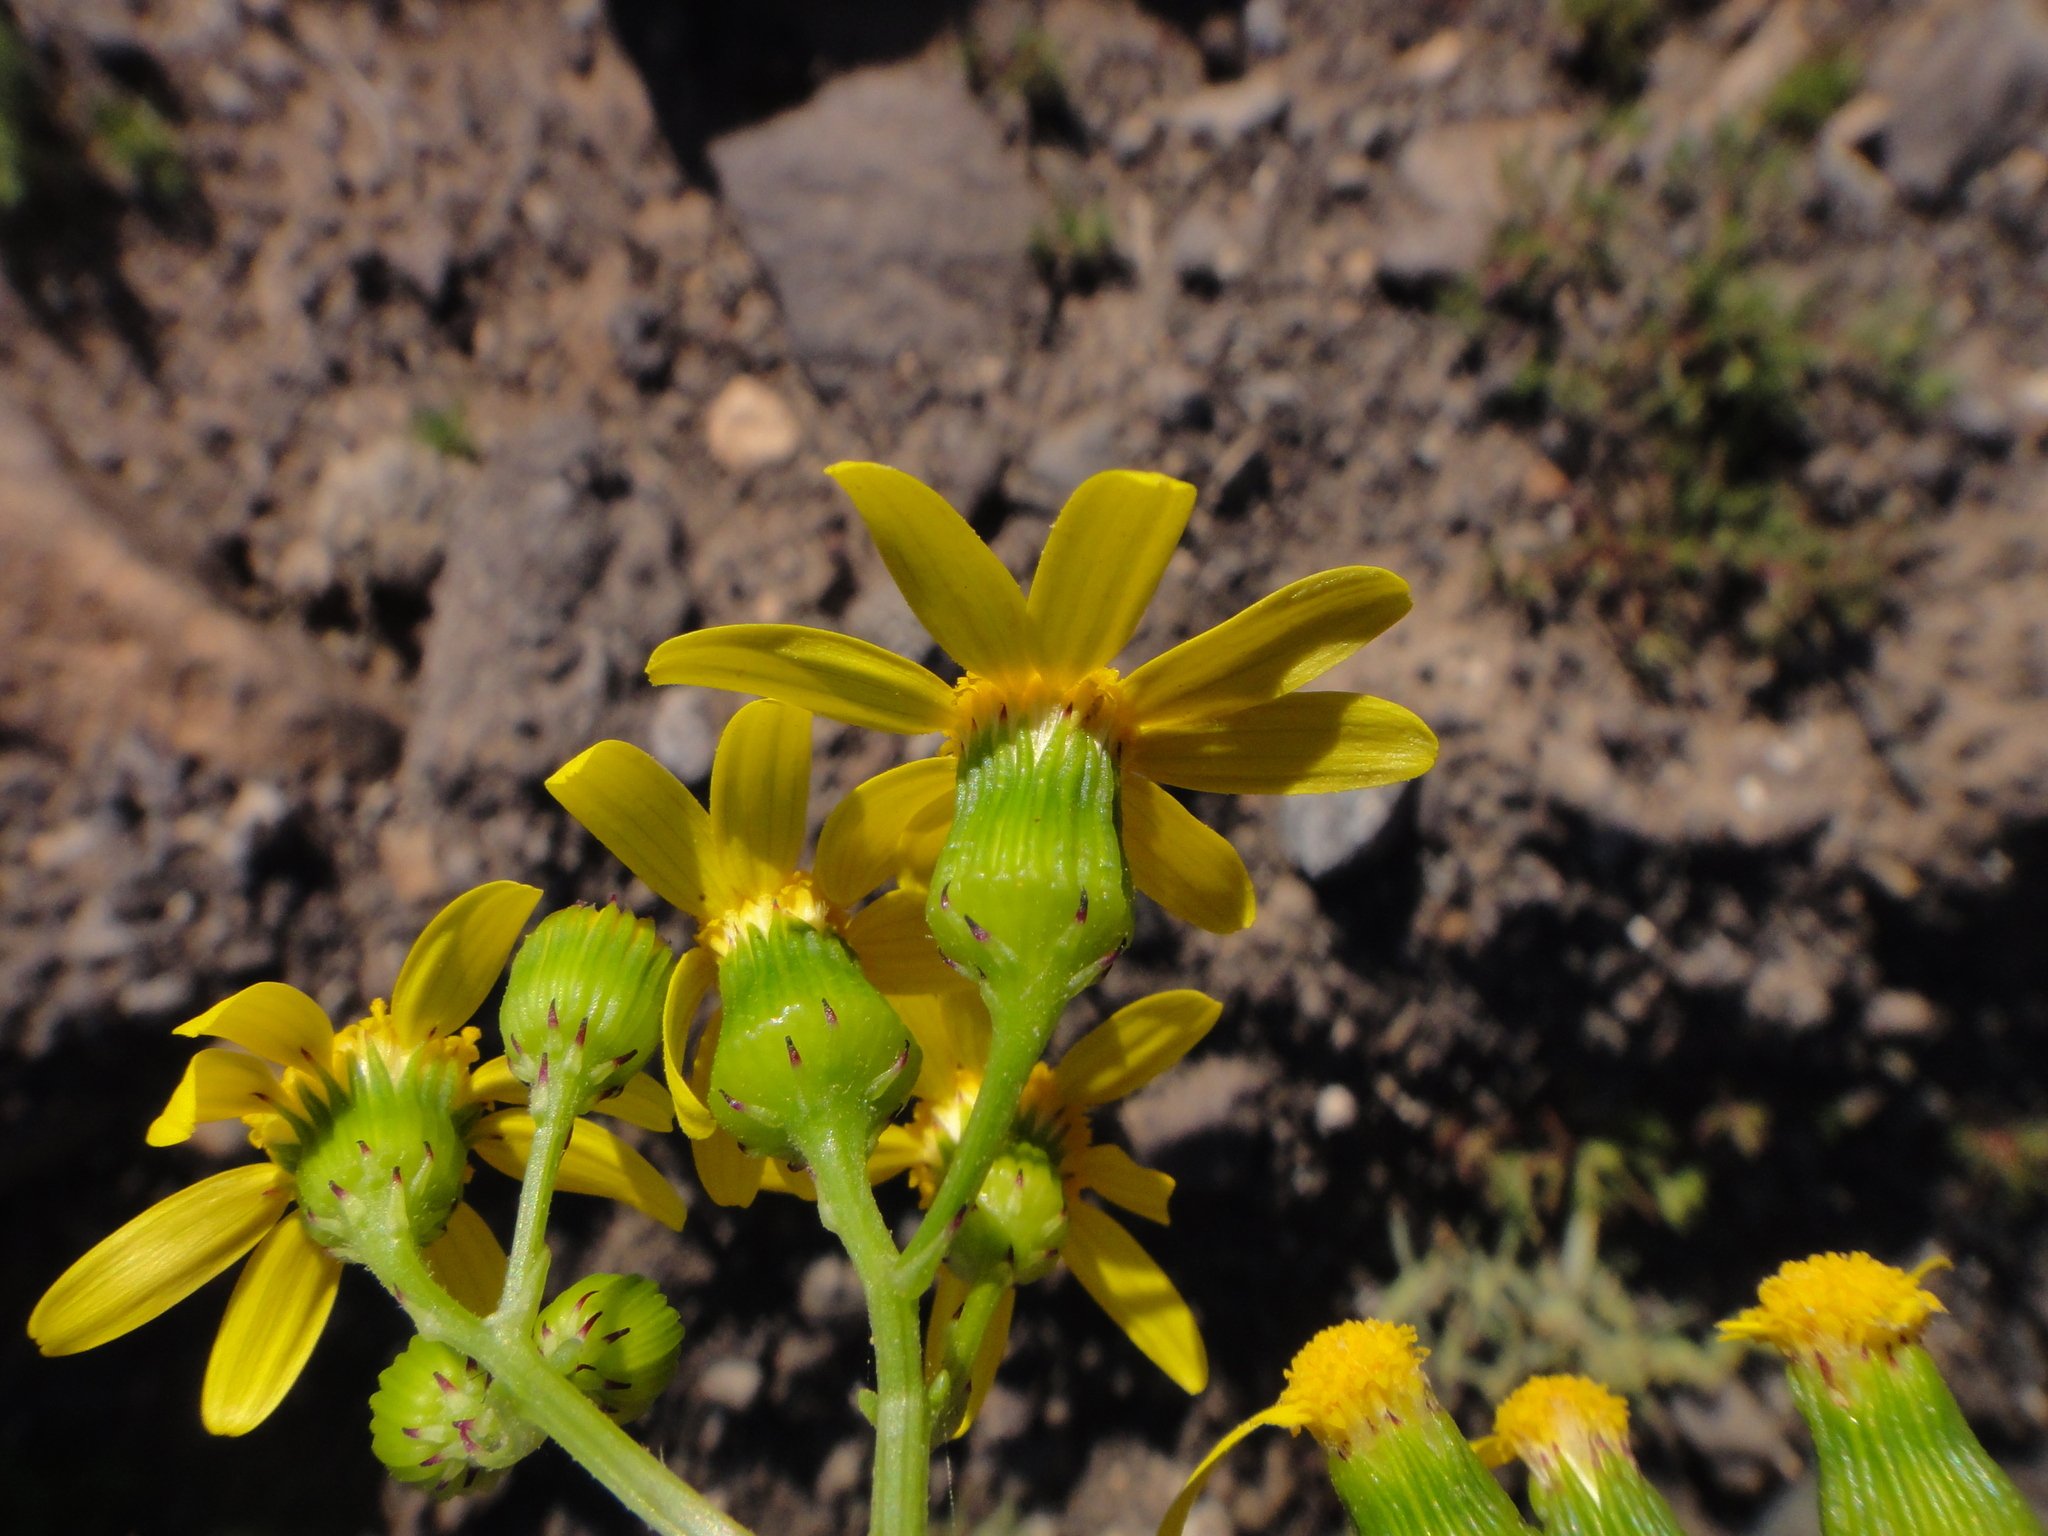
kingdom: Plantae
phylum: Tracheophyta
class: Magnoliopsida
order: Asterales
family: Asteraceae
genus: Senecio
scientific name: Senecio leucanthemifolius
